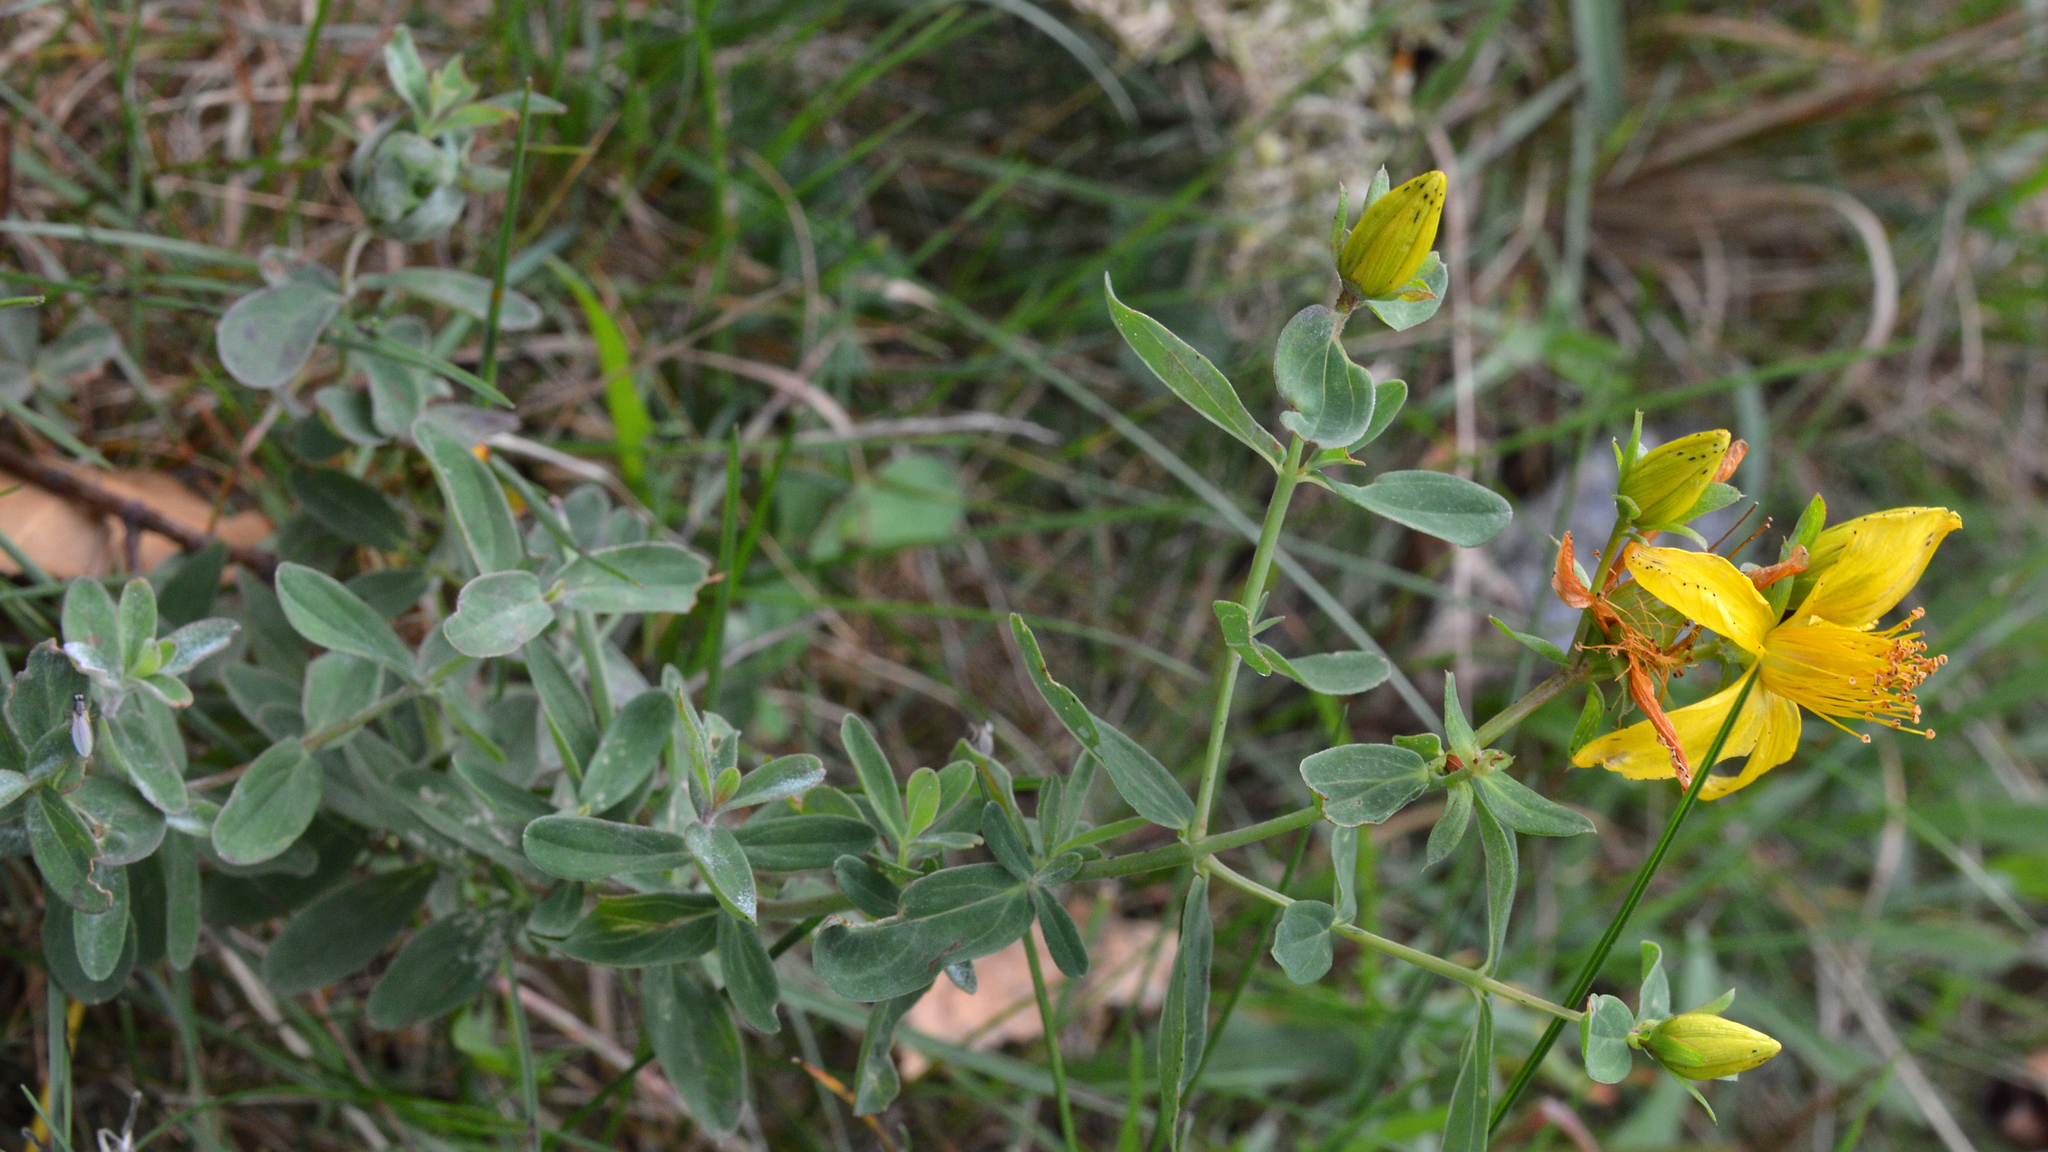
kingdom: Plantae
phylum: Tracheophyta
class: Magnoliopsida
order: Malpighiales
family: Hypericaceae
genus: Hypericum
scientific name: Hypericum perforatum
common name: Common st. johnswort
